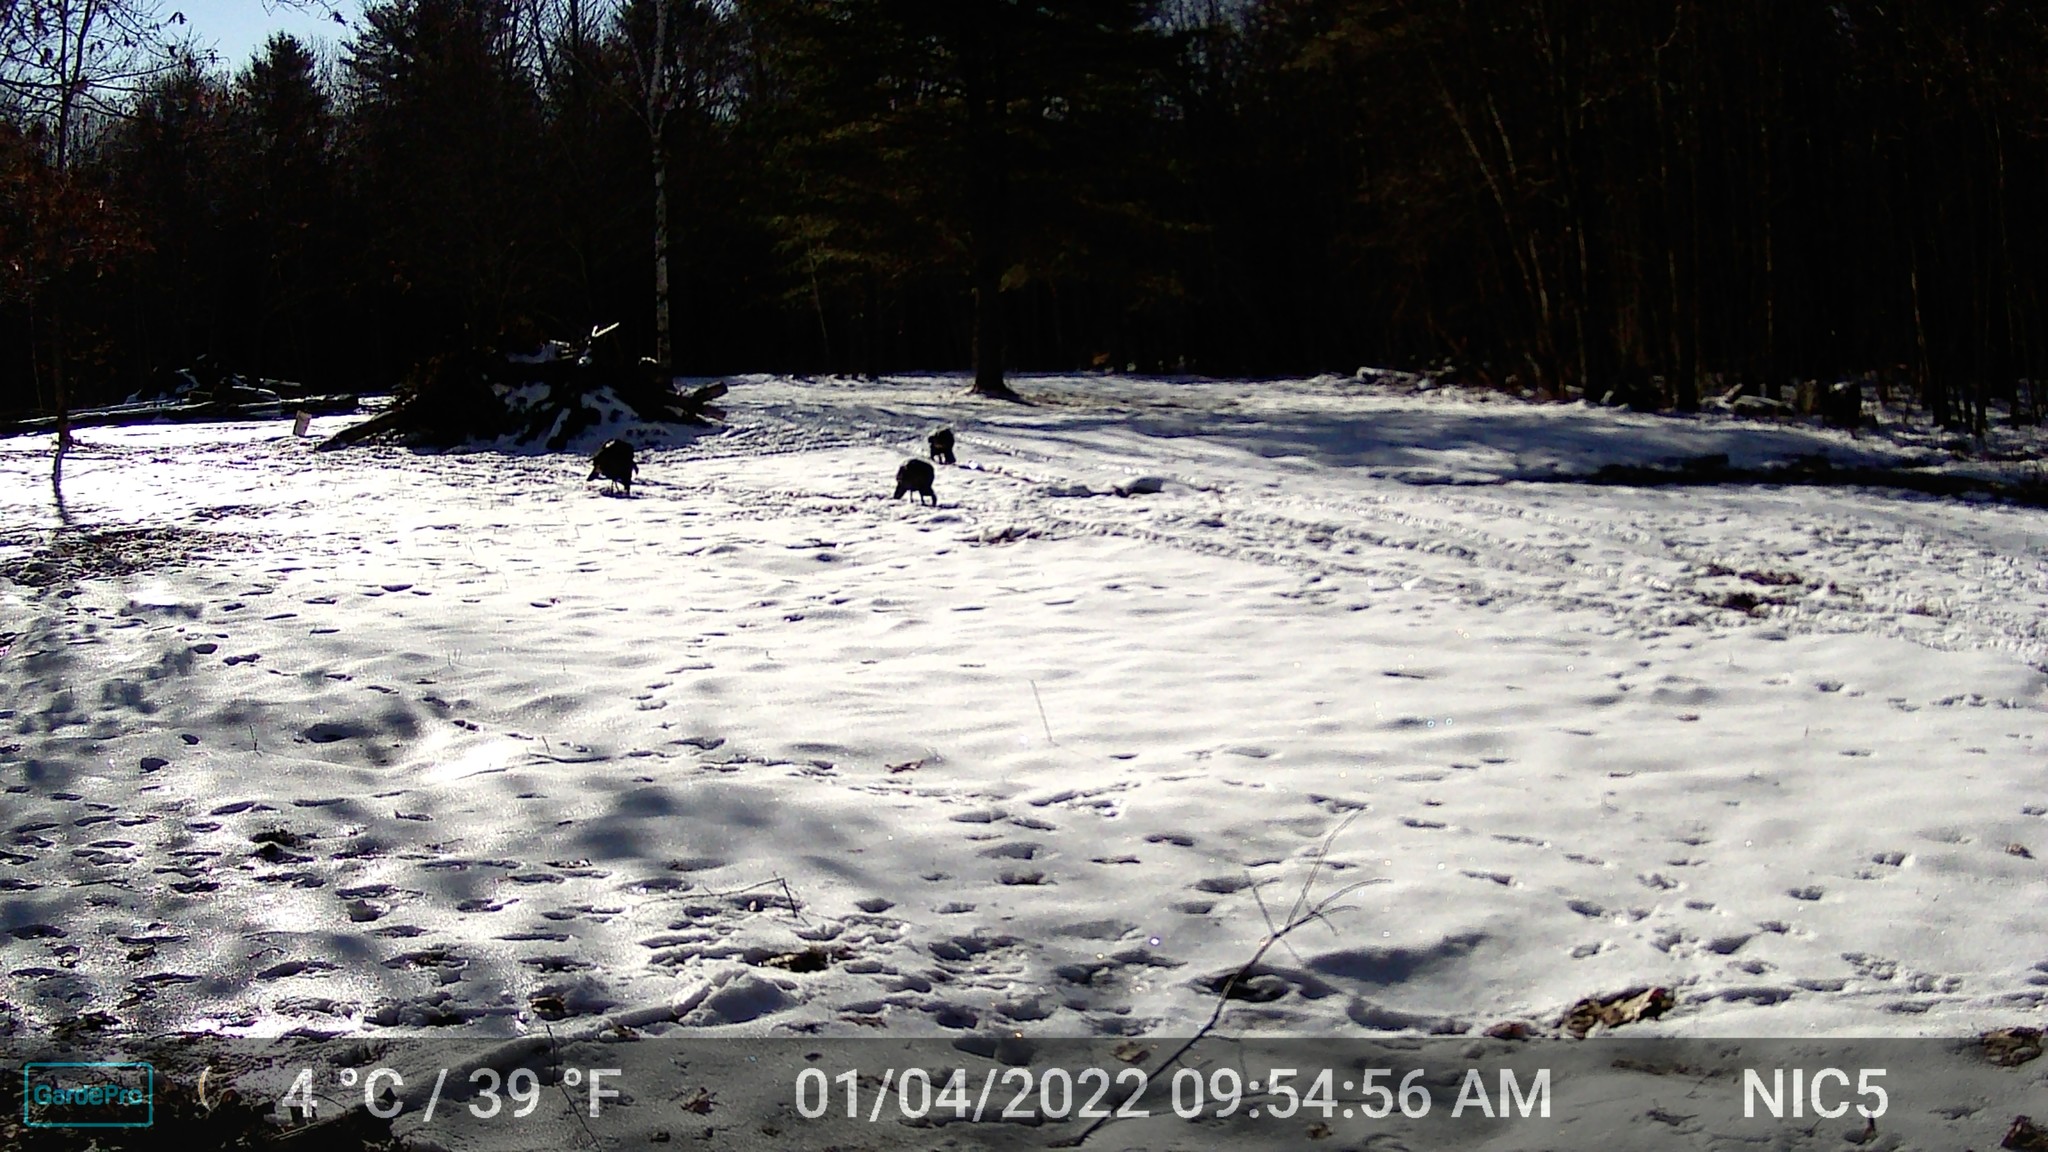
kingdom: Animalia
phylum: Chordata
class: Aves
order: Galliformes
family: Phasianidae
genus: Meleagris
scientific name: Meleagris gallopavo
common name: Wild turkey
